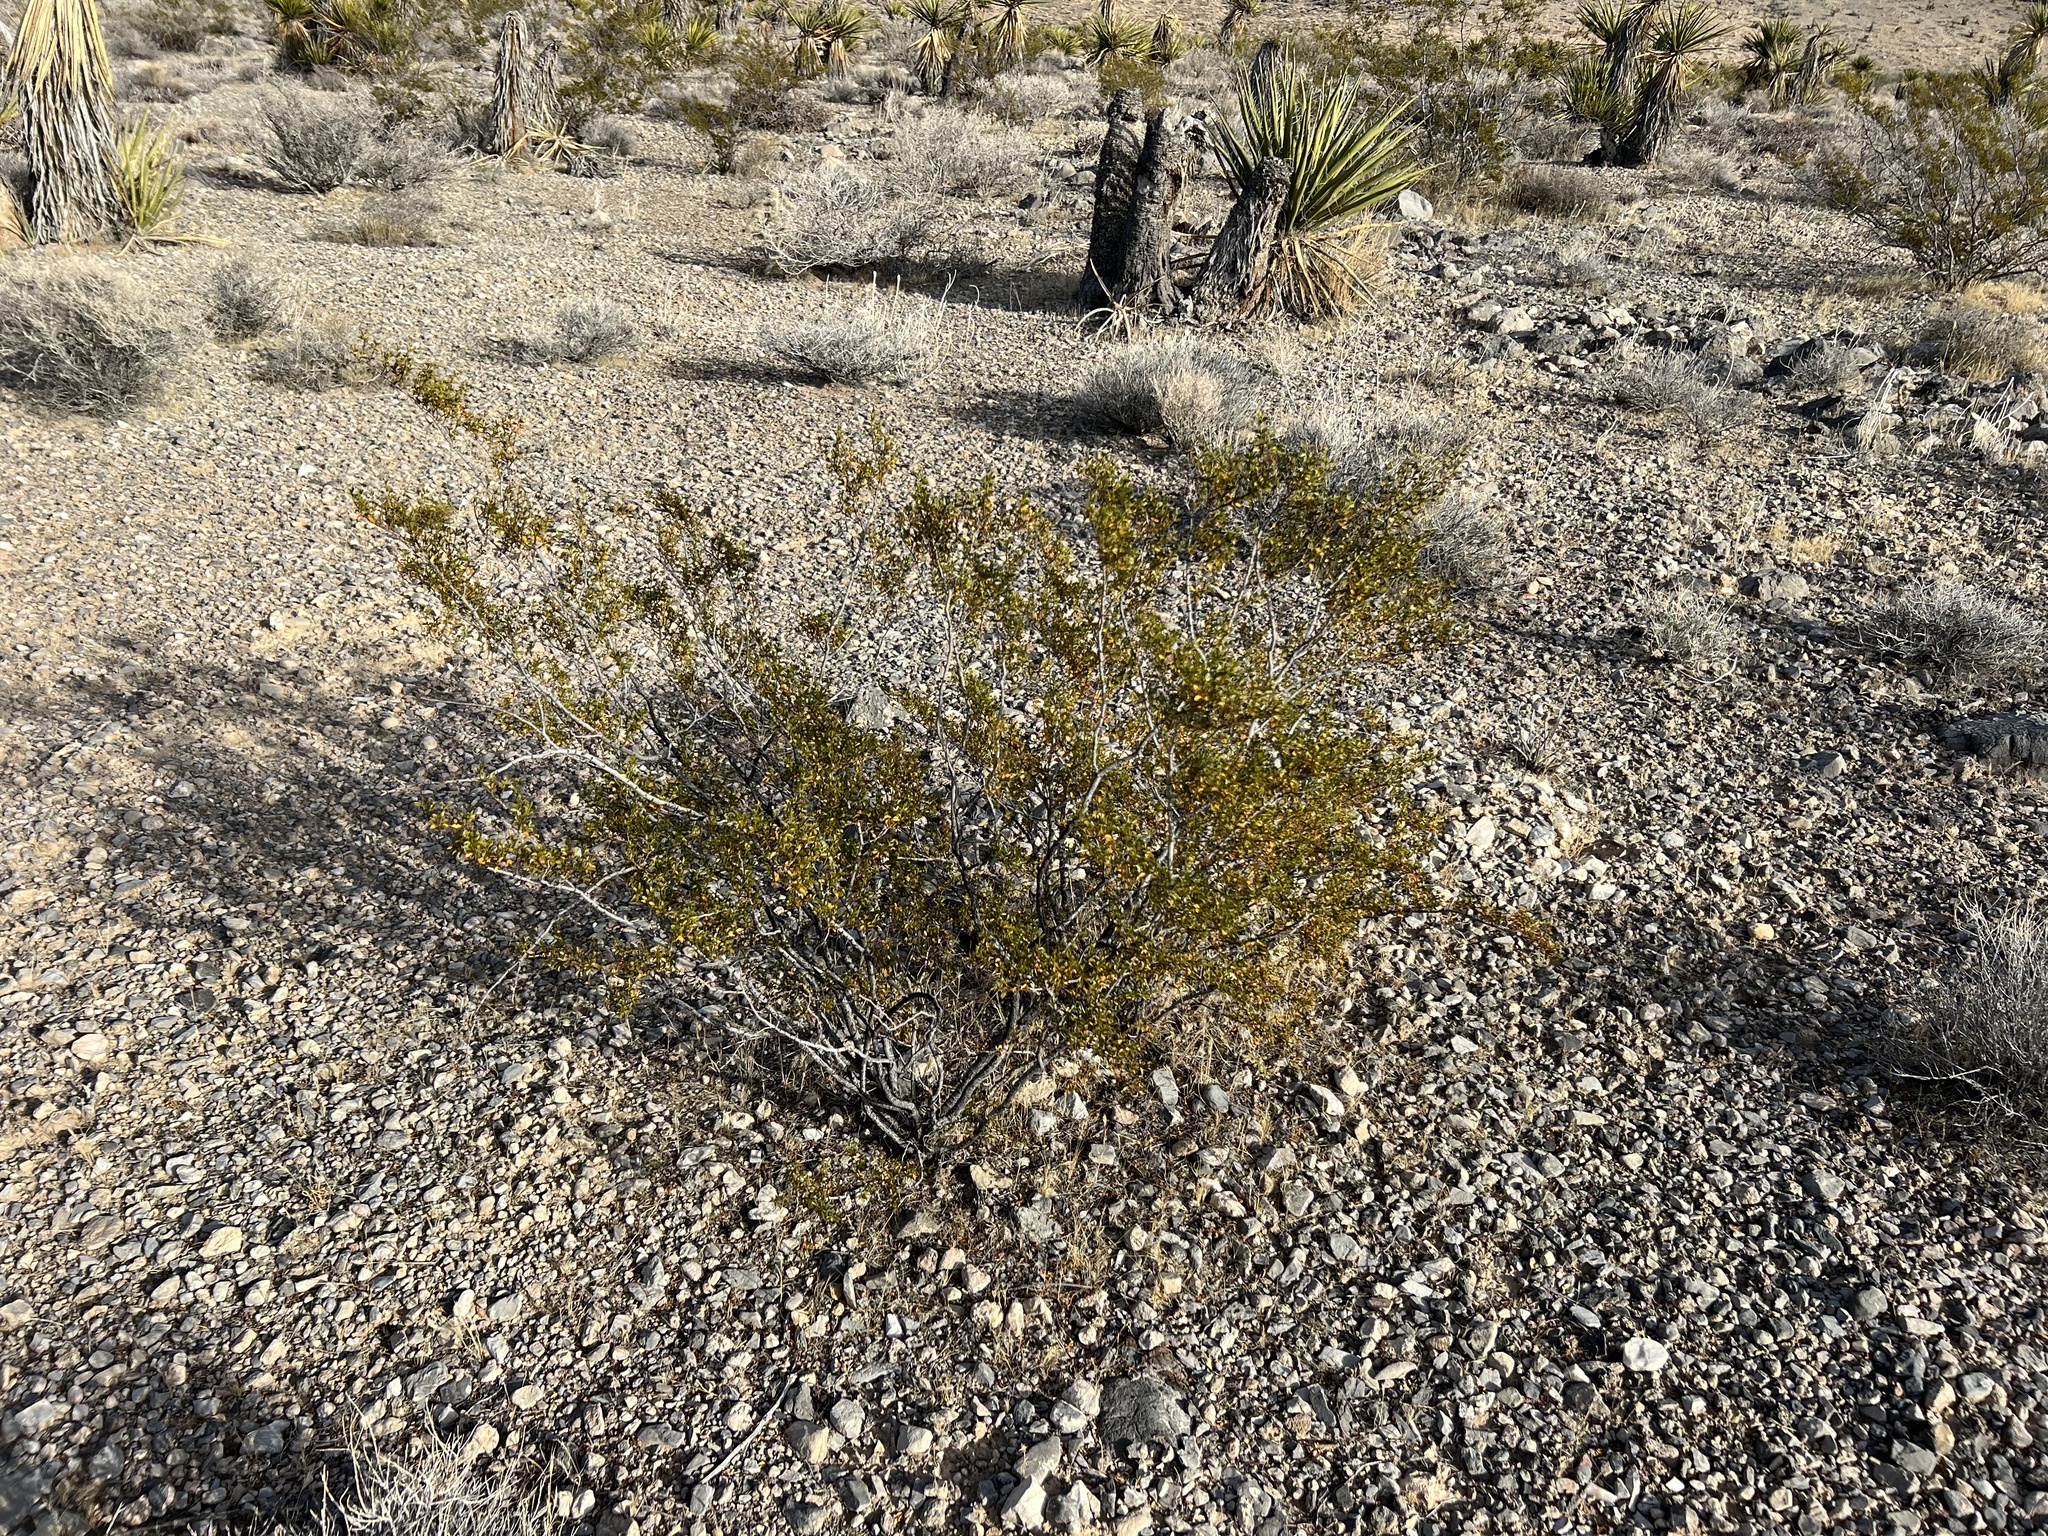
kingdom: Plantae
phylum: Tracheophyta
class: Magnoliopsida
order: Zygophyllales
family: Zygophyllaceae
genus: Larrea
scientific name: Larrea tridentata
